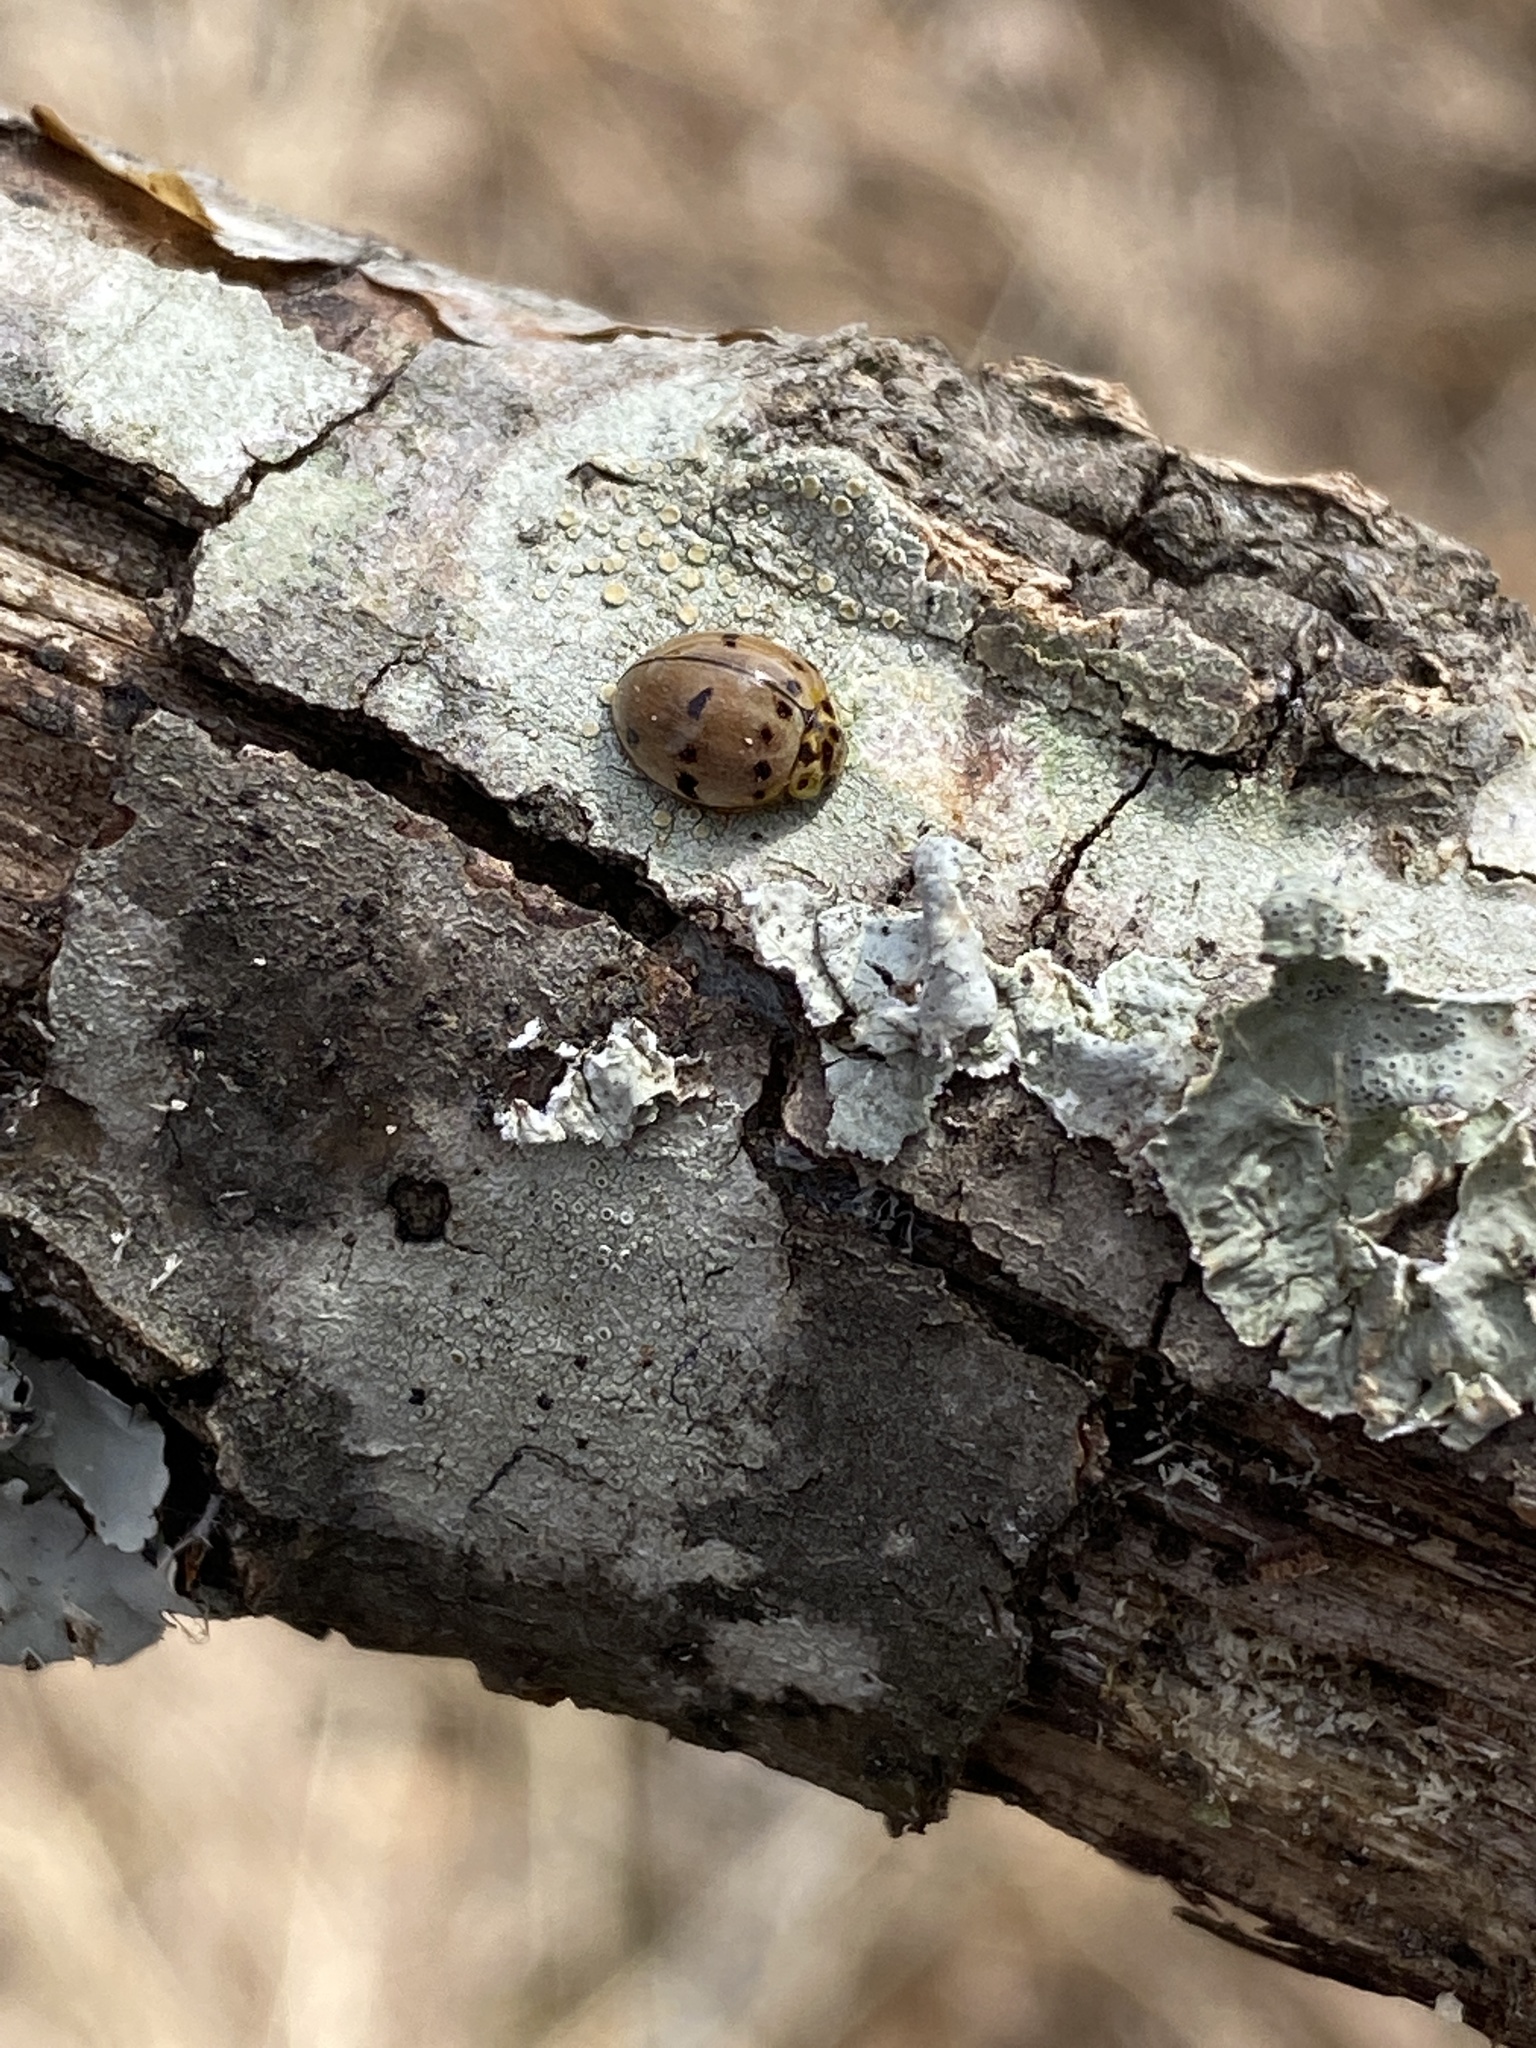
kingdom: Animalia
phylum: Arthropoda
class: Insecta
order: Coleoptera
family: Coccinellidae
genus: Olla
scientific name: Olla v-nigrum
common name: Ashy gray lady beetle
